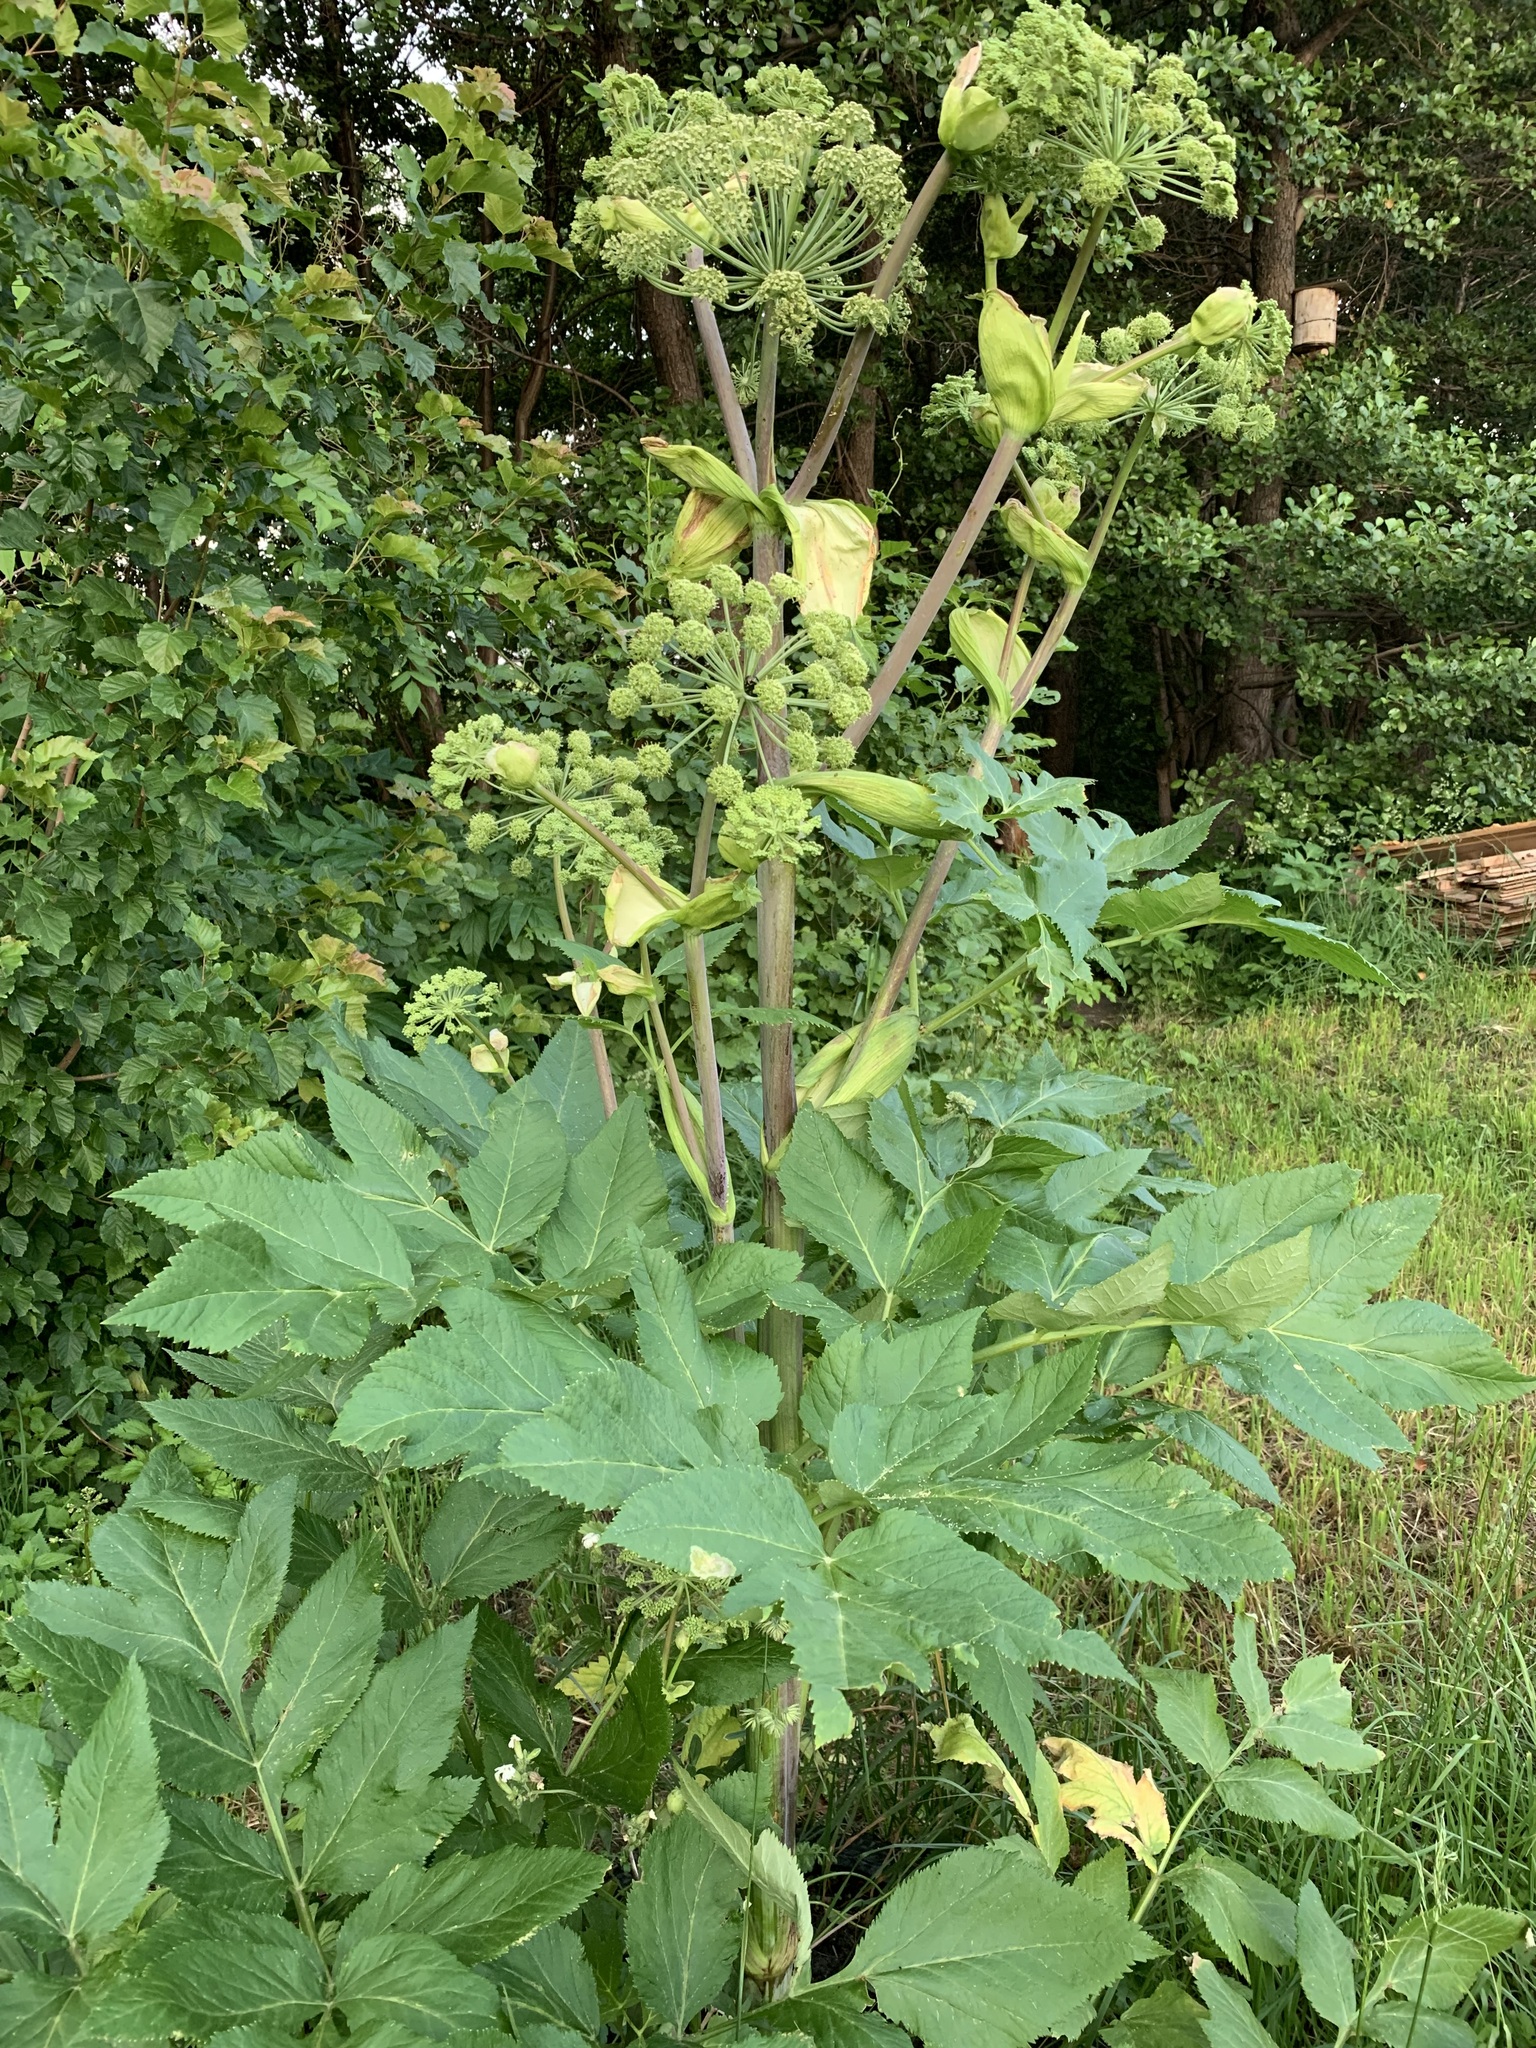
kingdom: Plantae
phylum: Tracheophyta
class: Magnoliopsida
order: Apiales
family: Apiaceae
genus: Angelica
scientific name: Angelica decurrens
